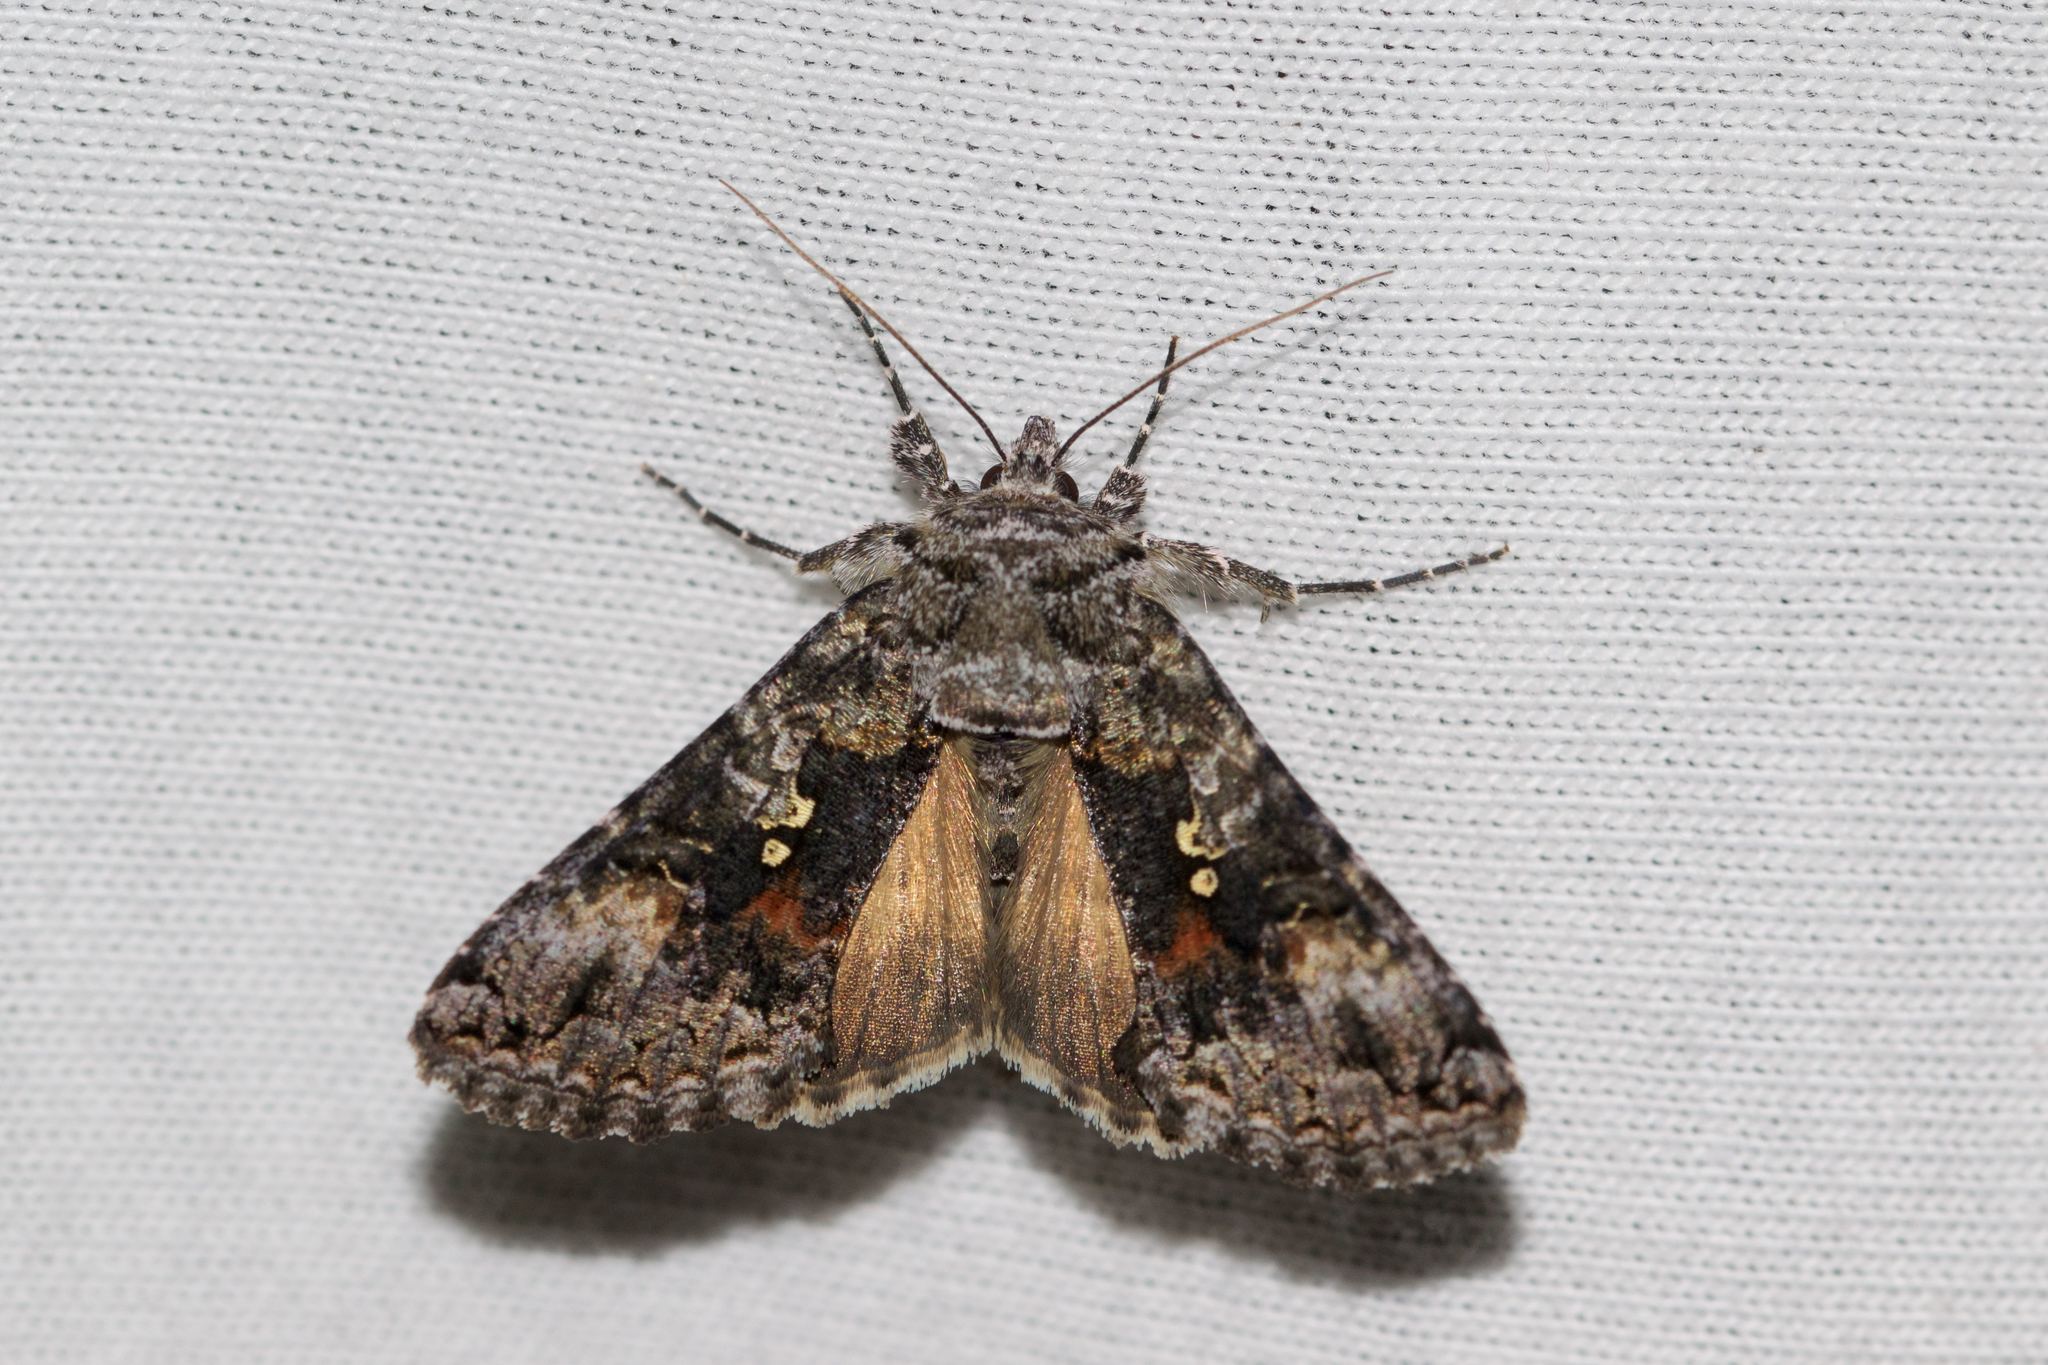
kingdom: Animalia
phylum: Arthropoda
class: Insecta
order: Lepidoptera
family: Noctuidae
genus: Syngrapha
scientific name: Syngrapha octoscripta
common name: Dusky silver y moth
